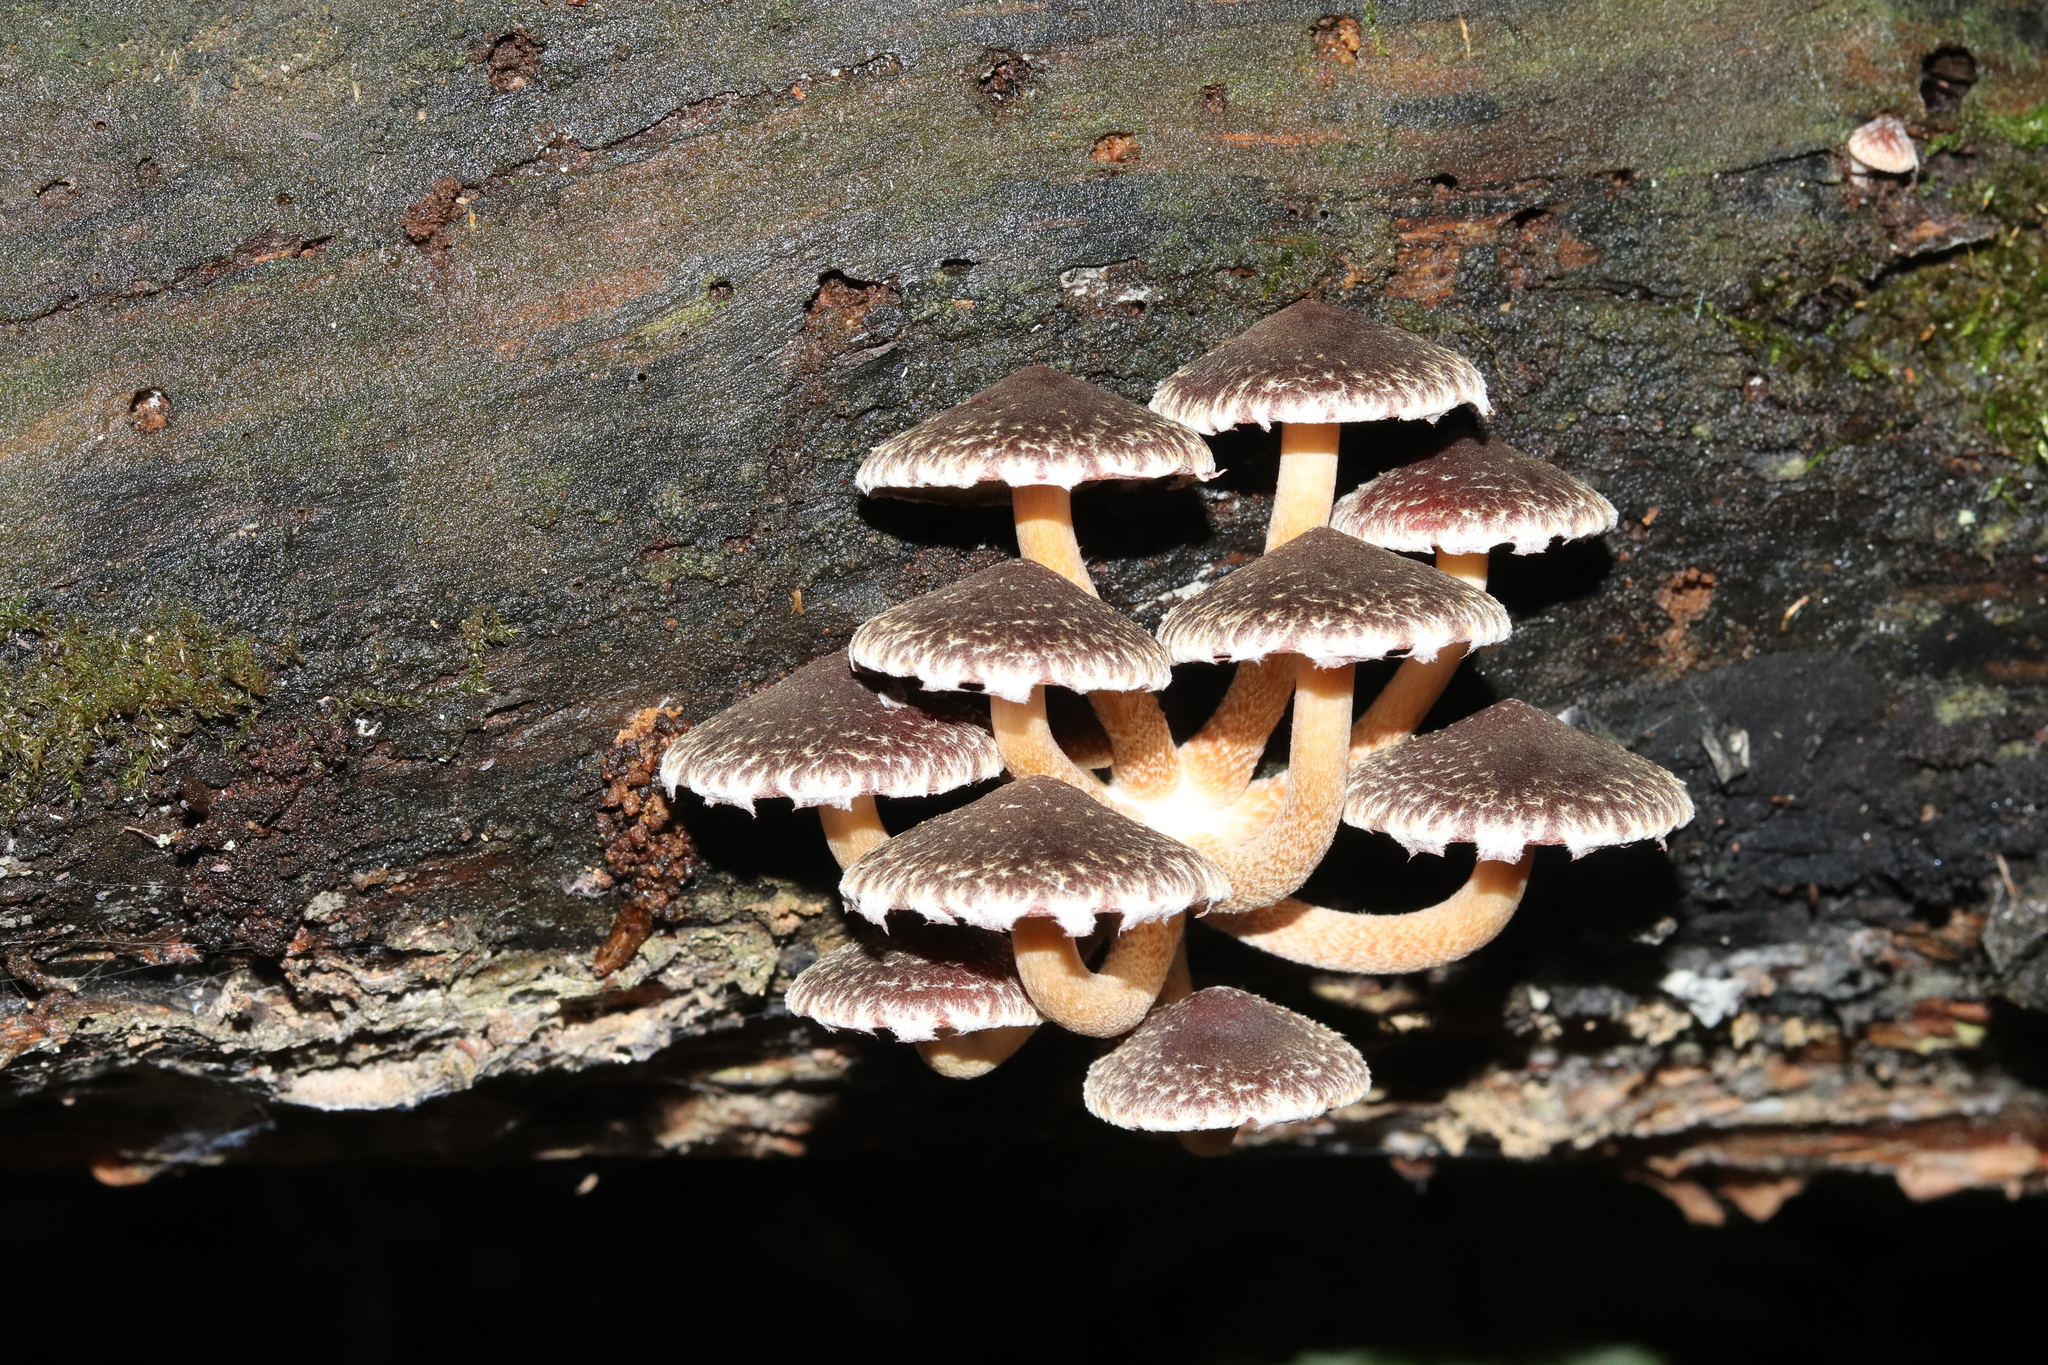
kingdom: Fungi
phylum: Basidiomycota
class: Agaricomycetes
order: Agaricales
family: Strophariaceae
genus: Hypholoma
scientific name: Hypholoma brunneum
